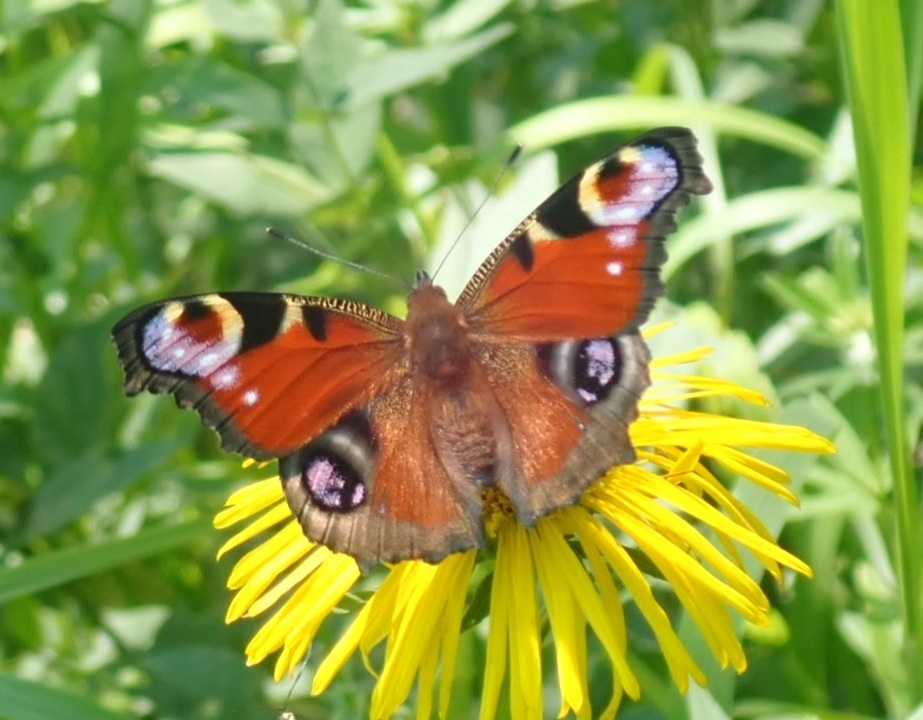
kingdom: Animalia
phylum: Arthropoda
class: Insecta
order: Lepidoptera
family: Nymphalidae
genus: Aglais
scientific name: Aglais io
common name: Peacock
